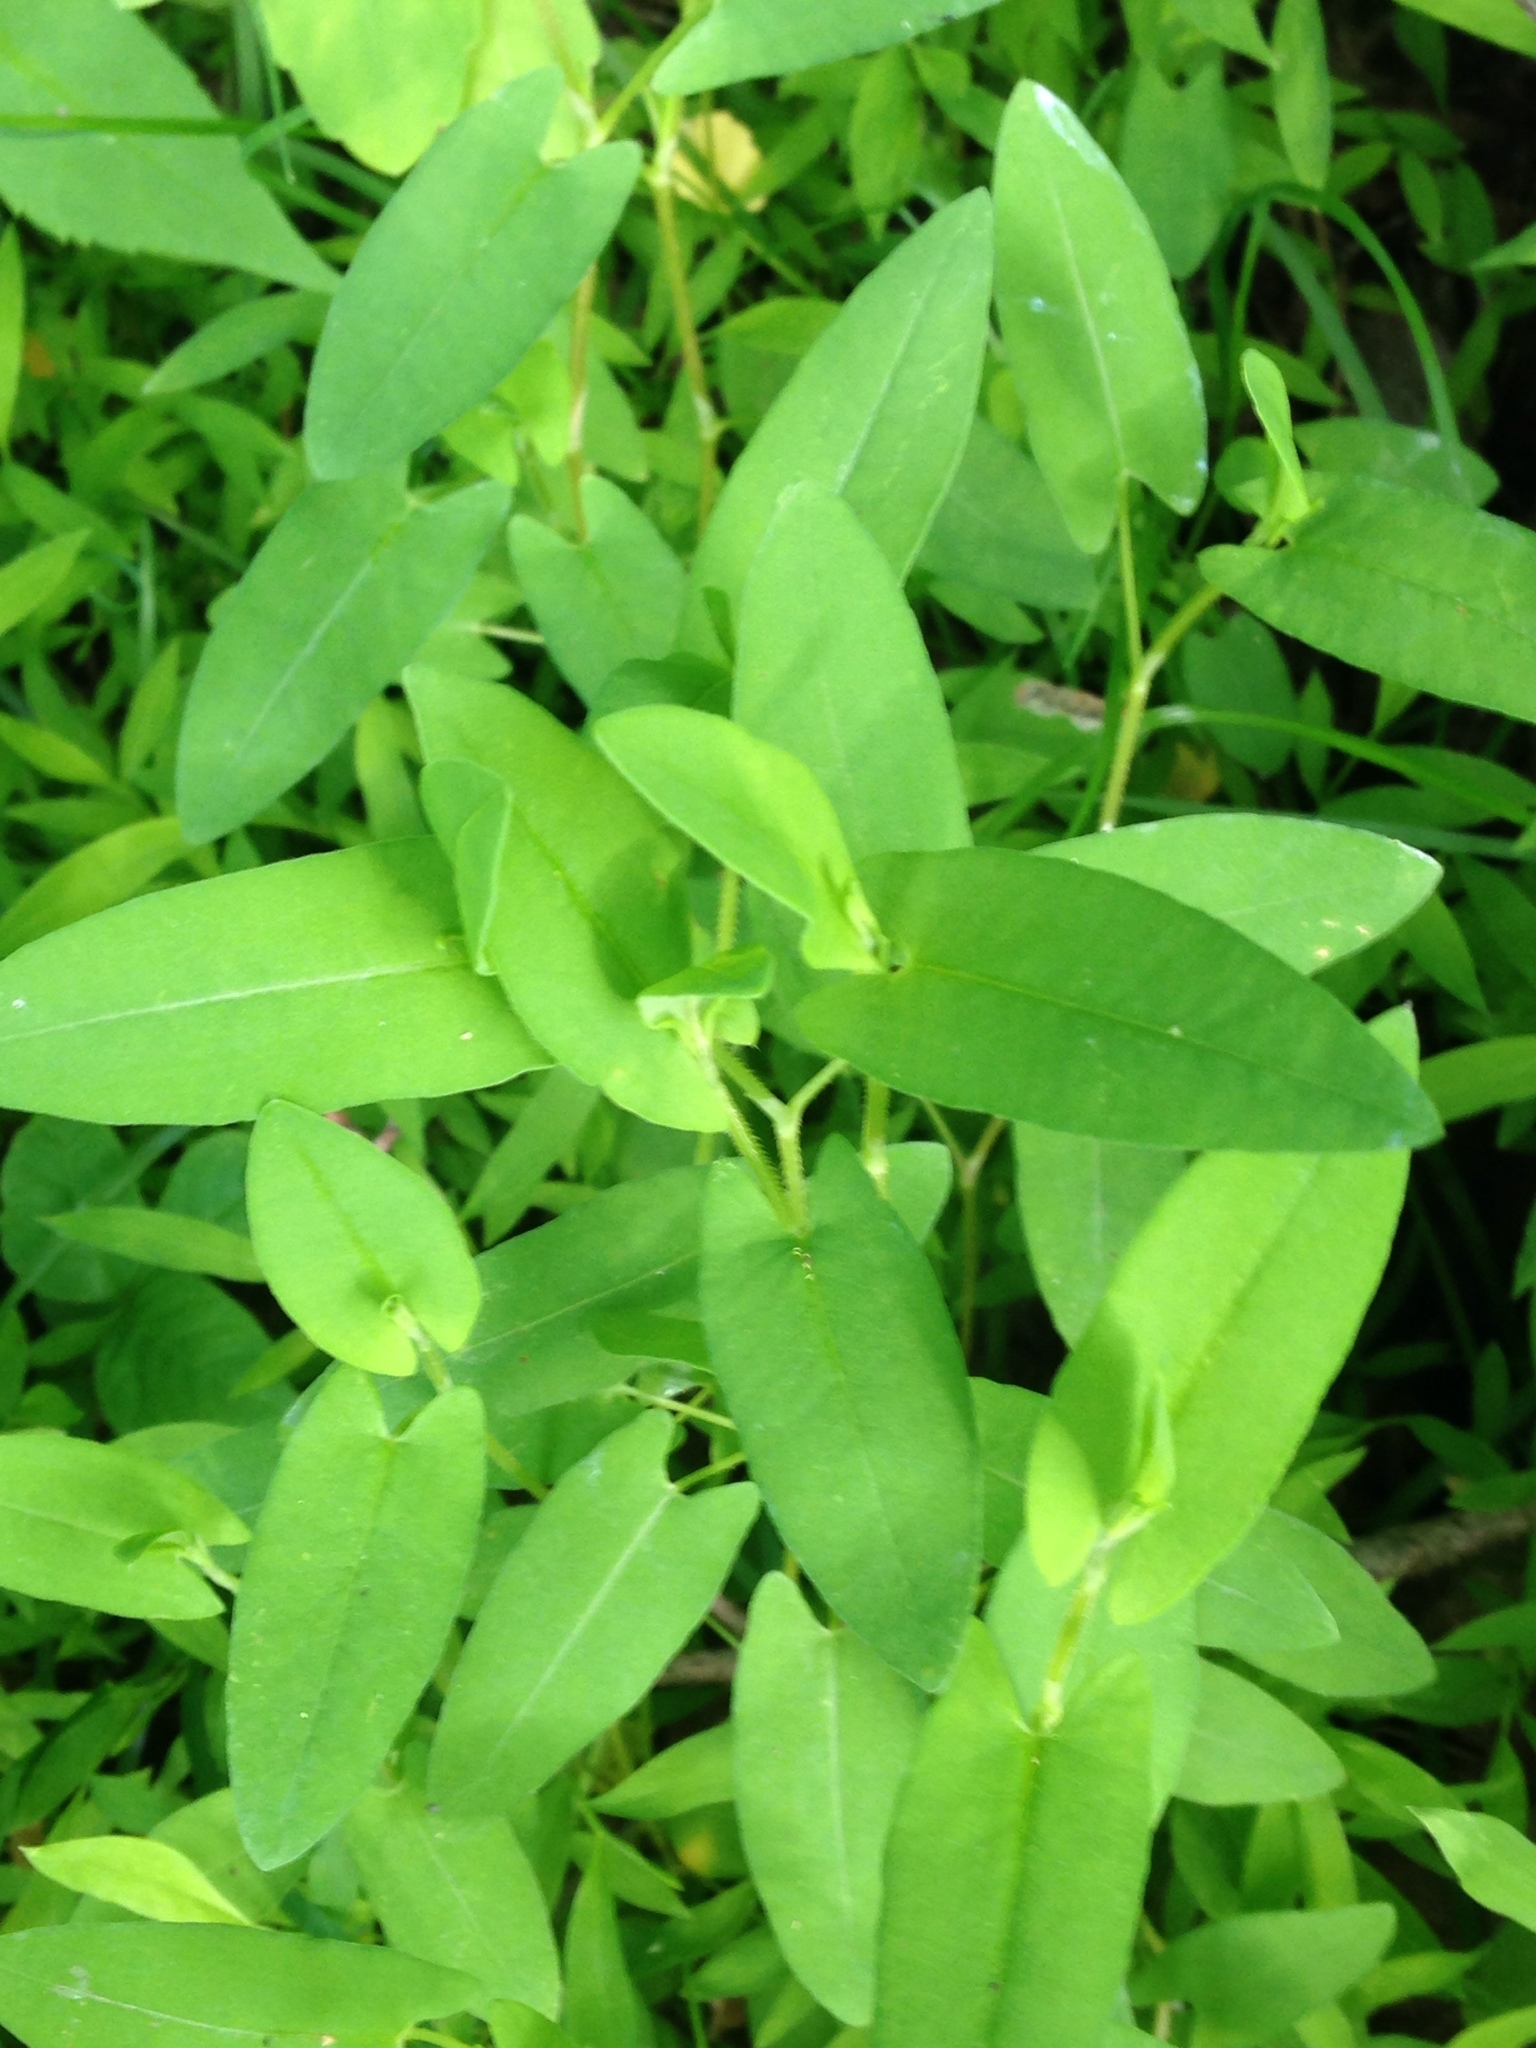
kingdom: Plantae
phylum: Tracheophyta
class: Magnoliopsida
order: Caryophyllales
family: Polygonaceae
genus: Persicaria
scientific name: Persicaria sagittata
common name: American tearthumb
